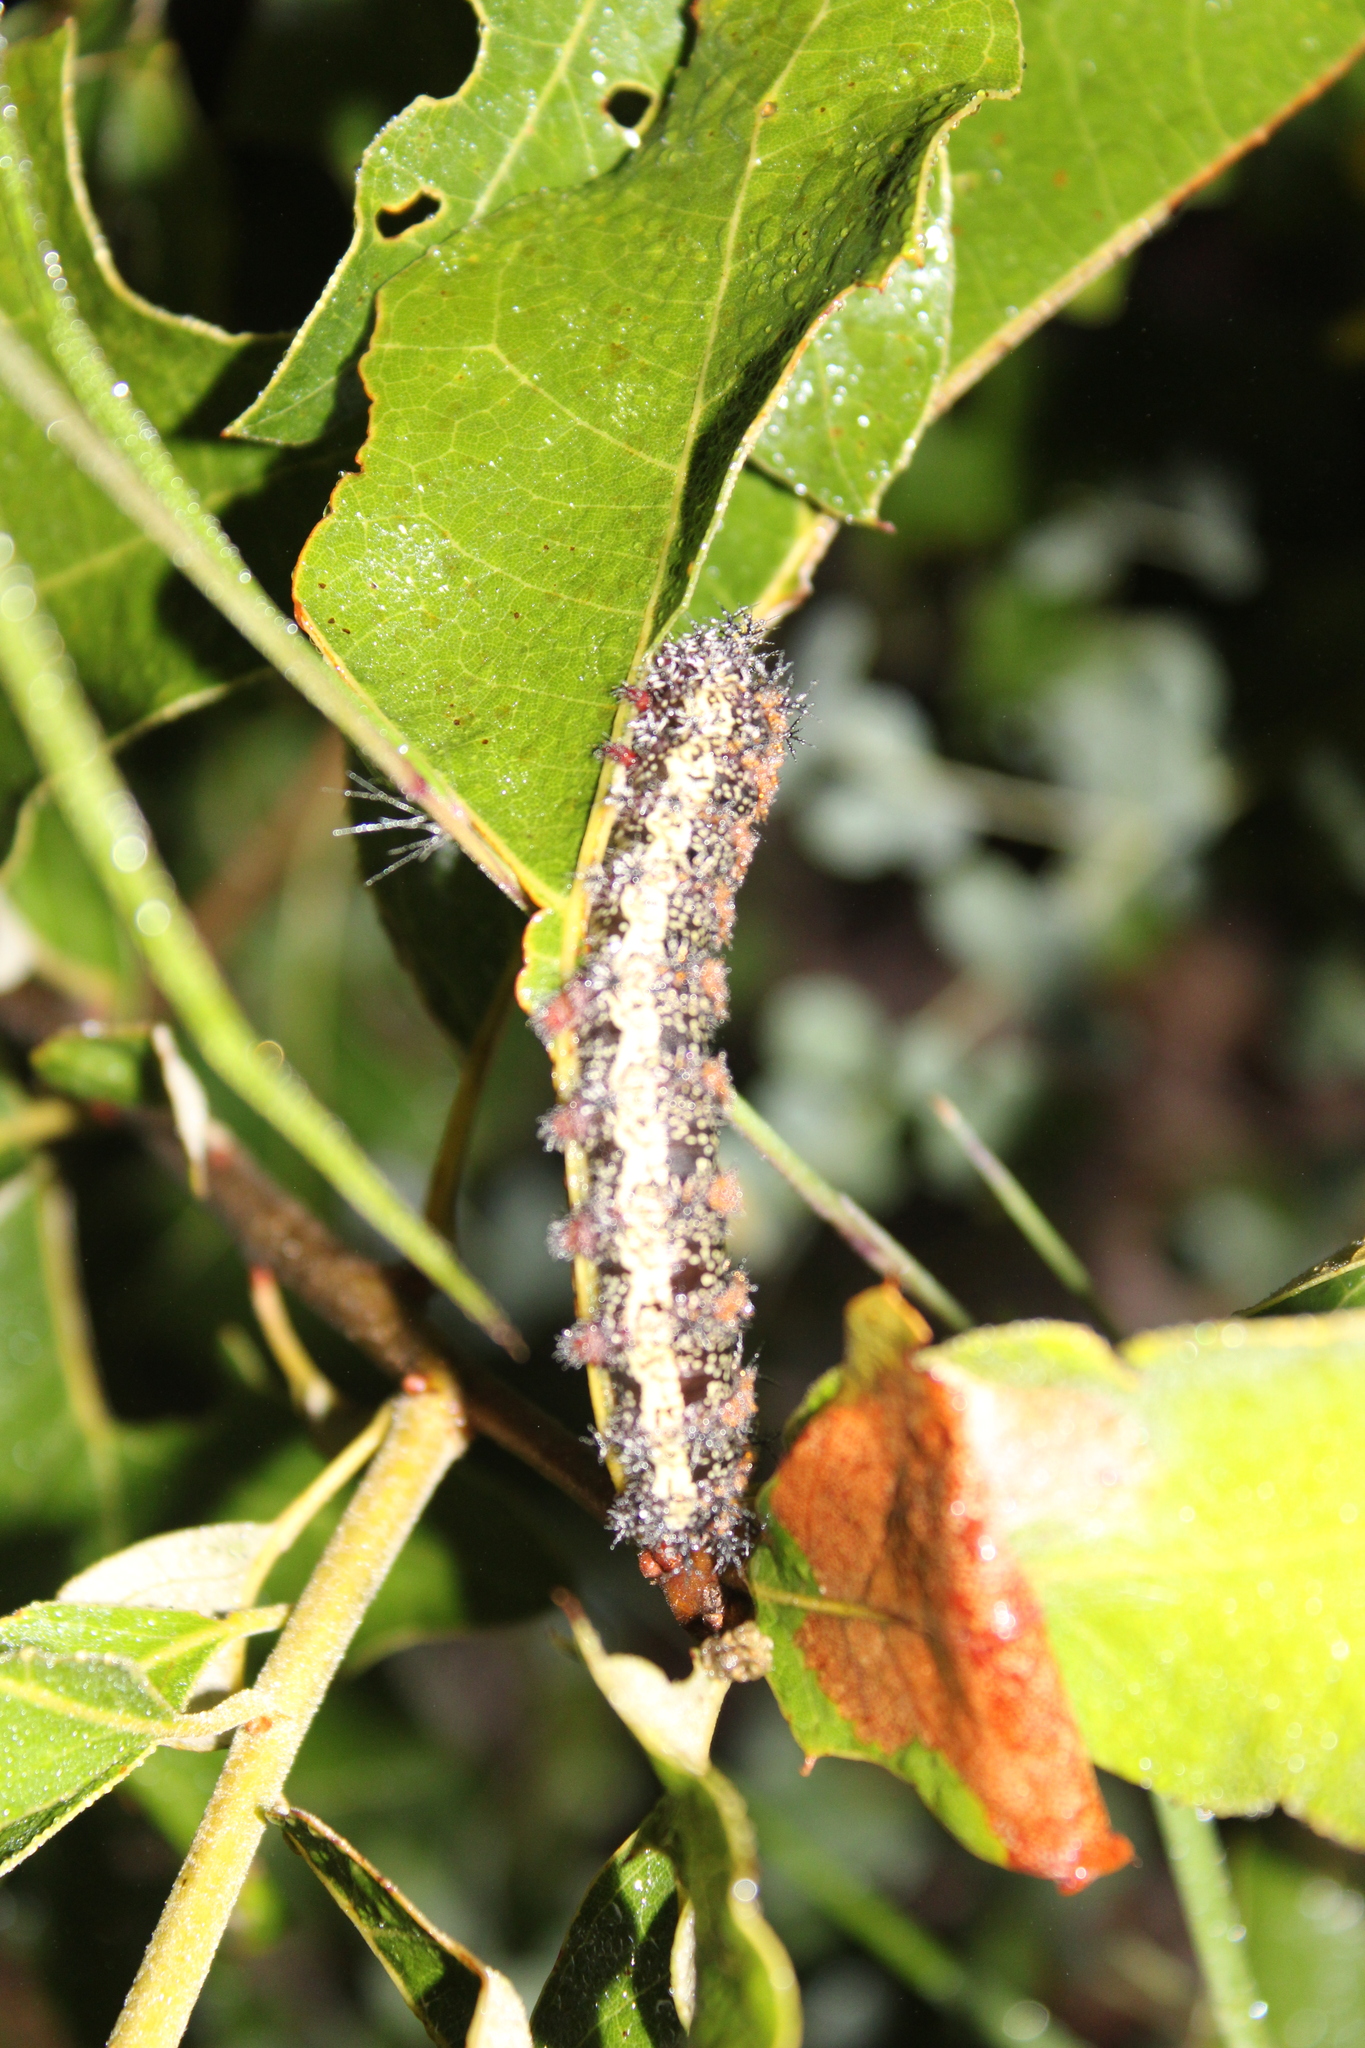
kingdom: Animalia
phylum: Arthropoda
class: Insecta
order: Lepidoptera
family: Saturniidae
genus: Hemileuca
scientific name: Hemileuca maia
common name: Eastern buckmoth
